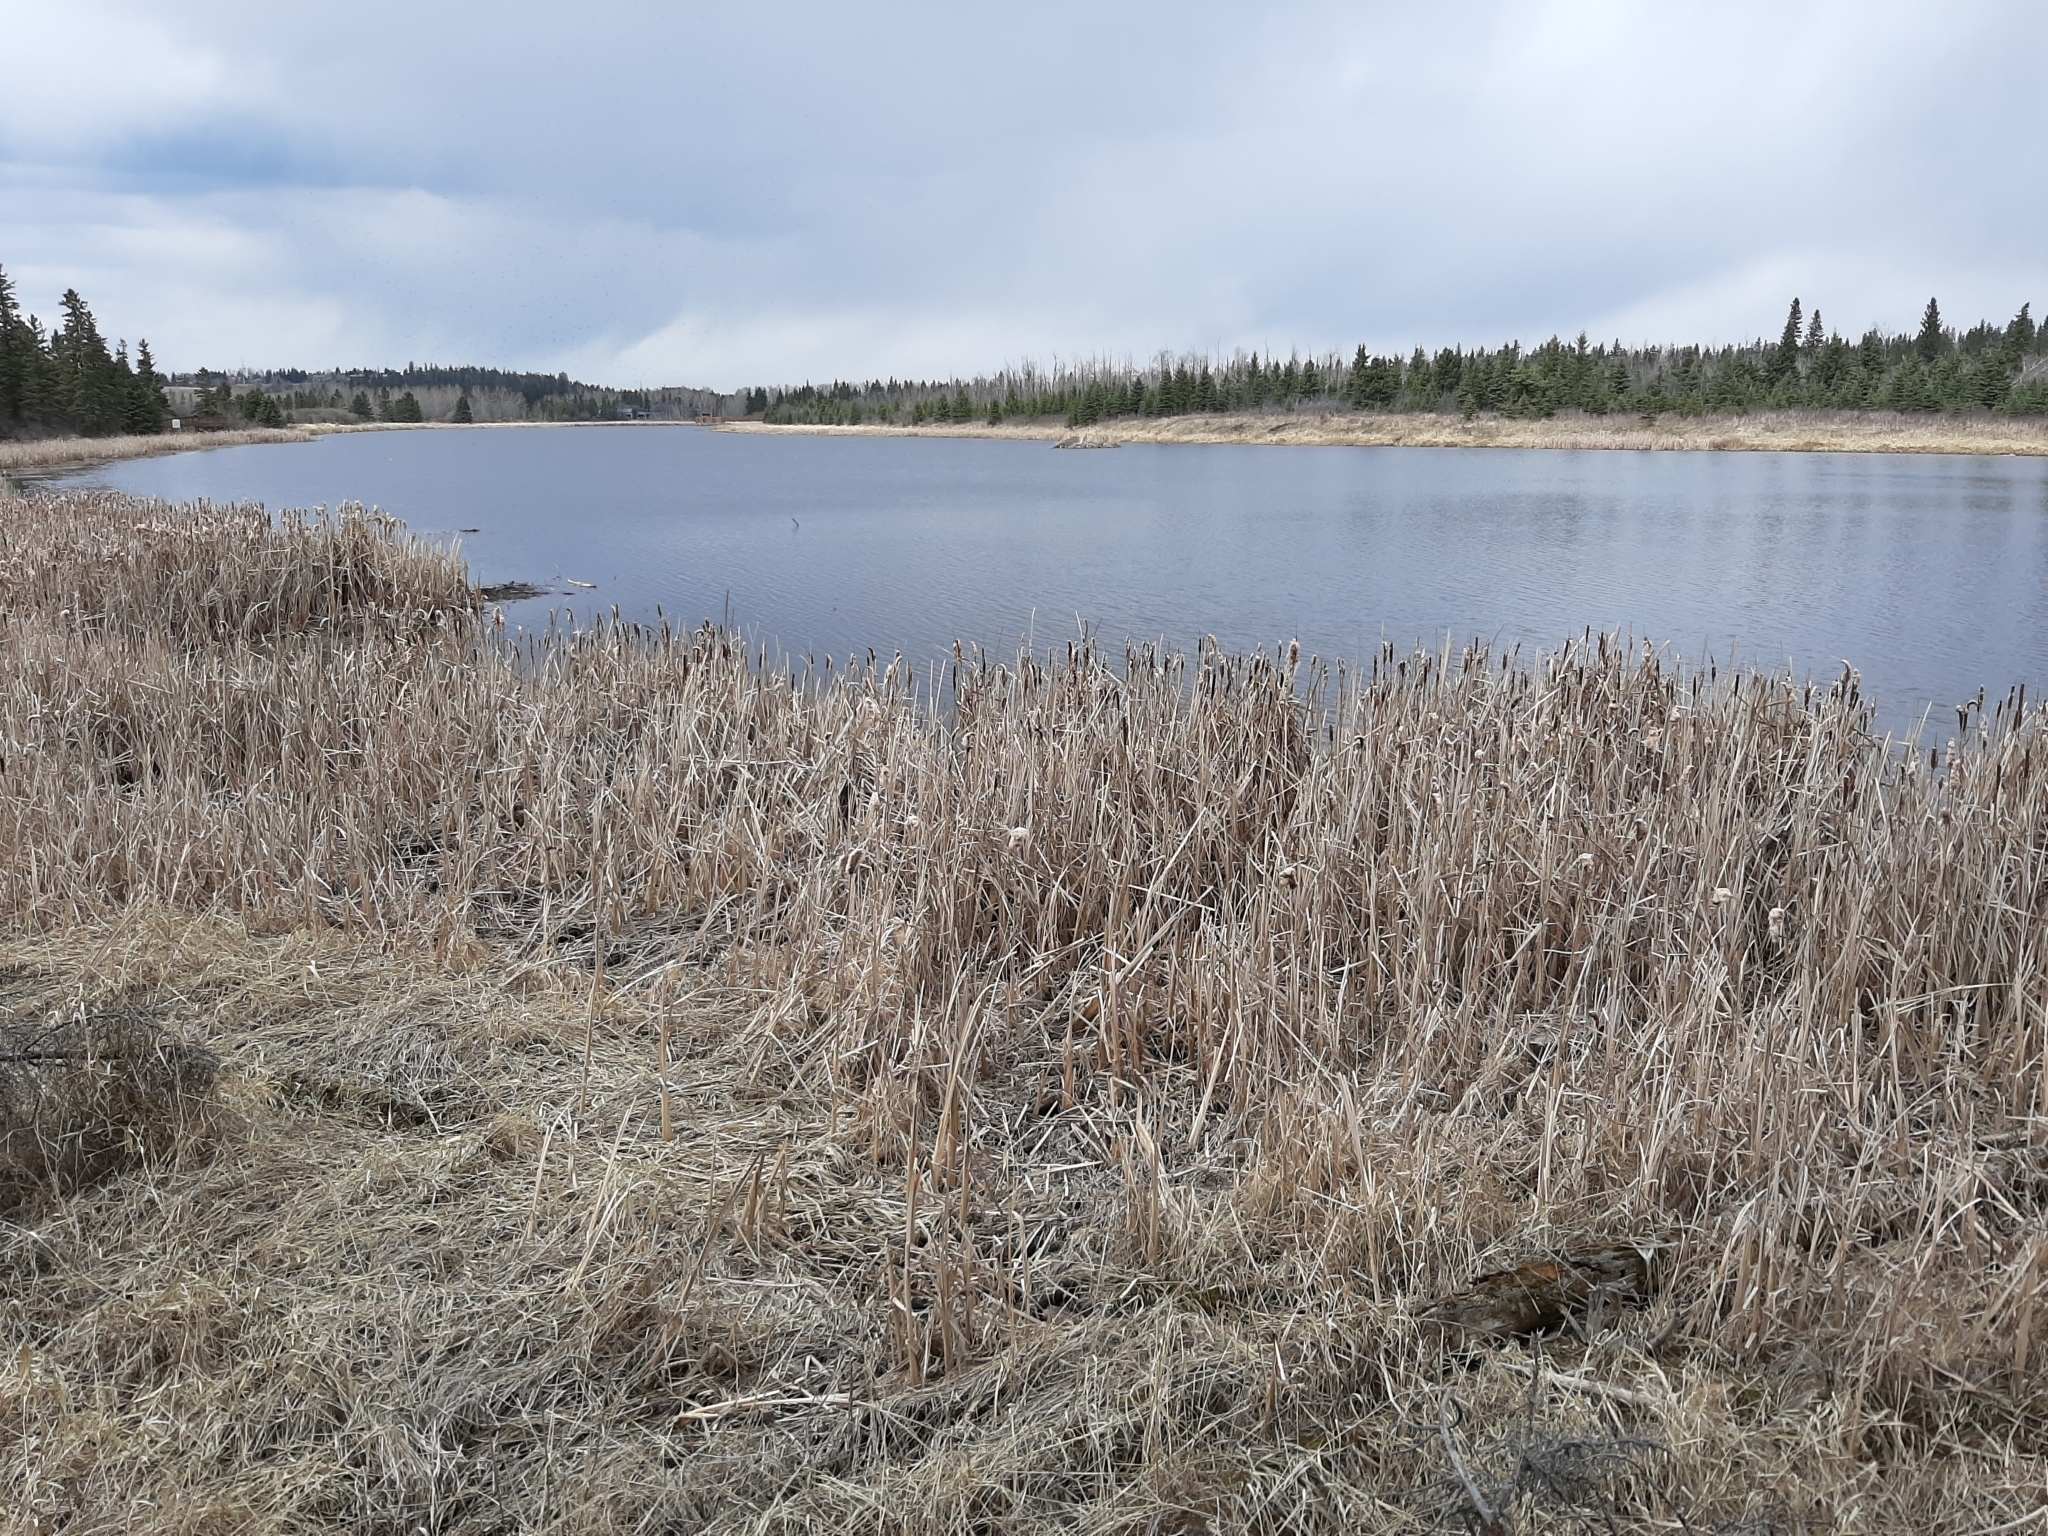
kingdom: Plantae
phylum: Tracheophyta
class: Liliopsida
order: Poales
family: Typhaceae
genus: Typha
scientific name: Typha latifolia
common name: Broadleaf cattail
